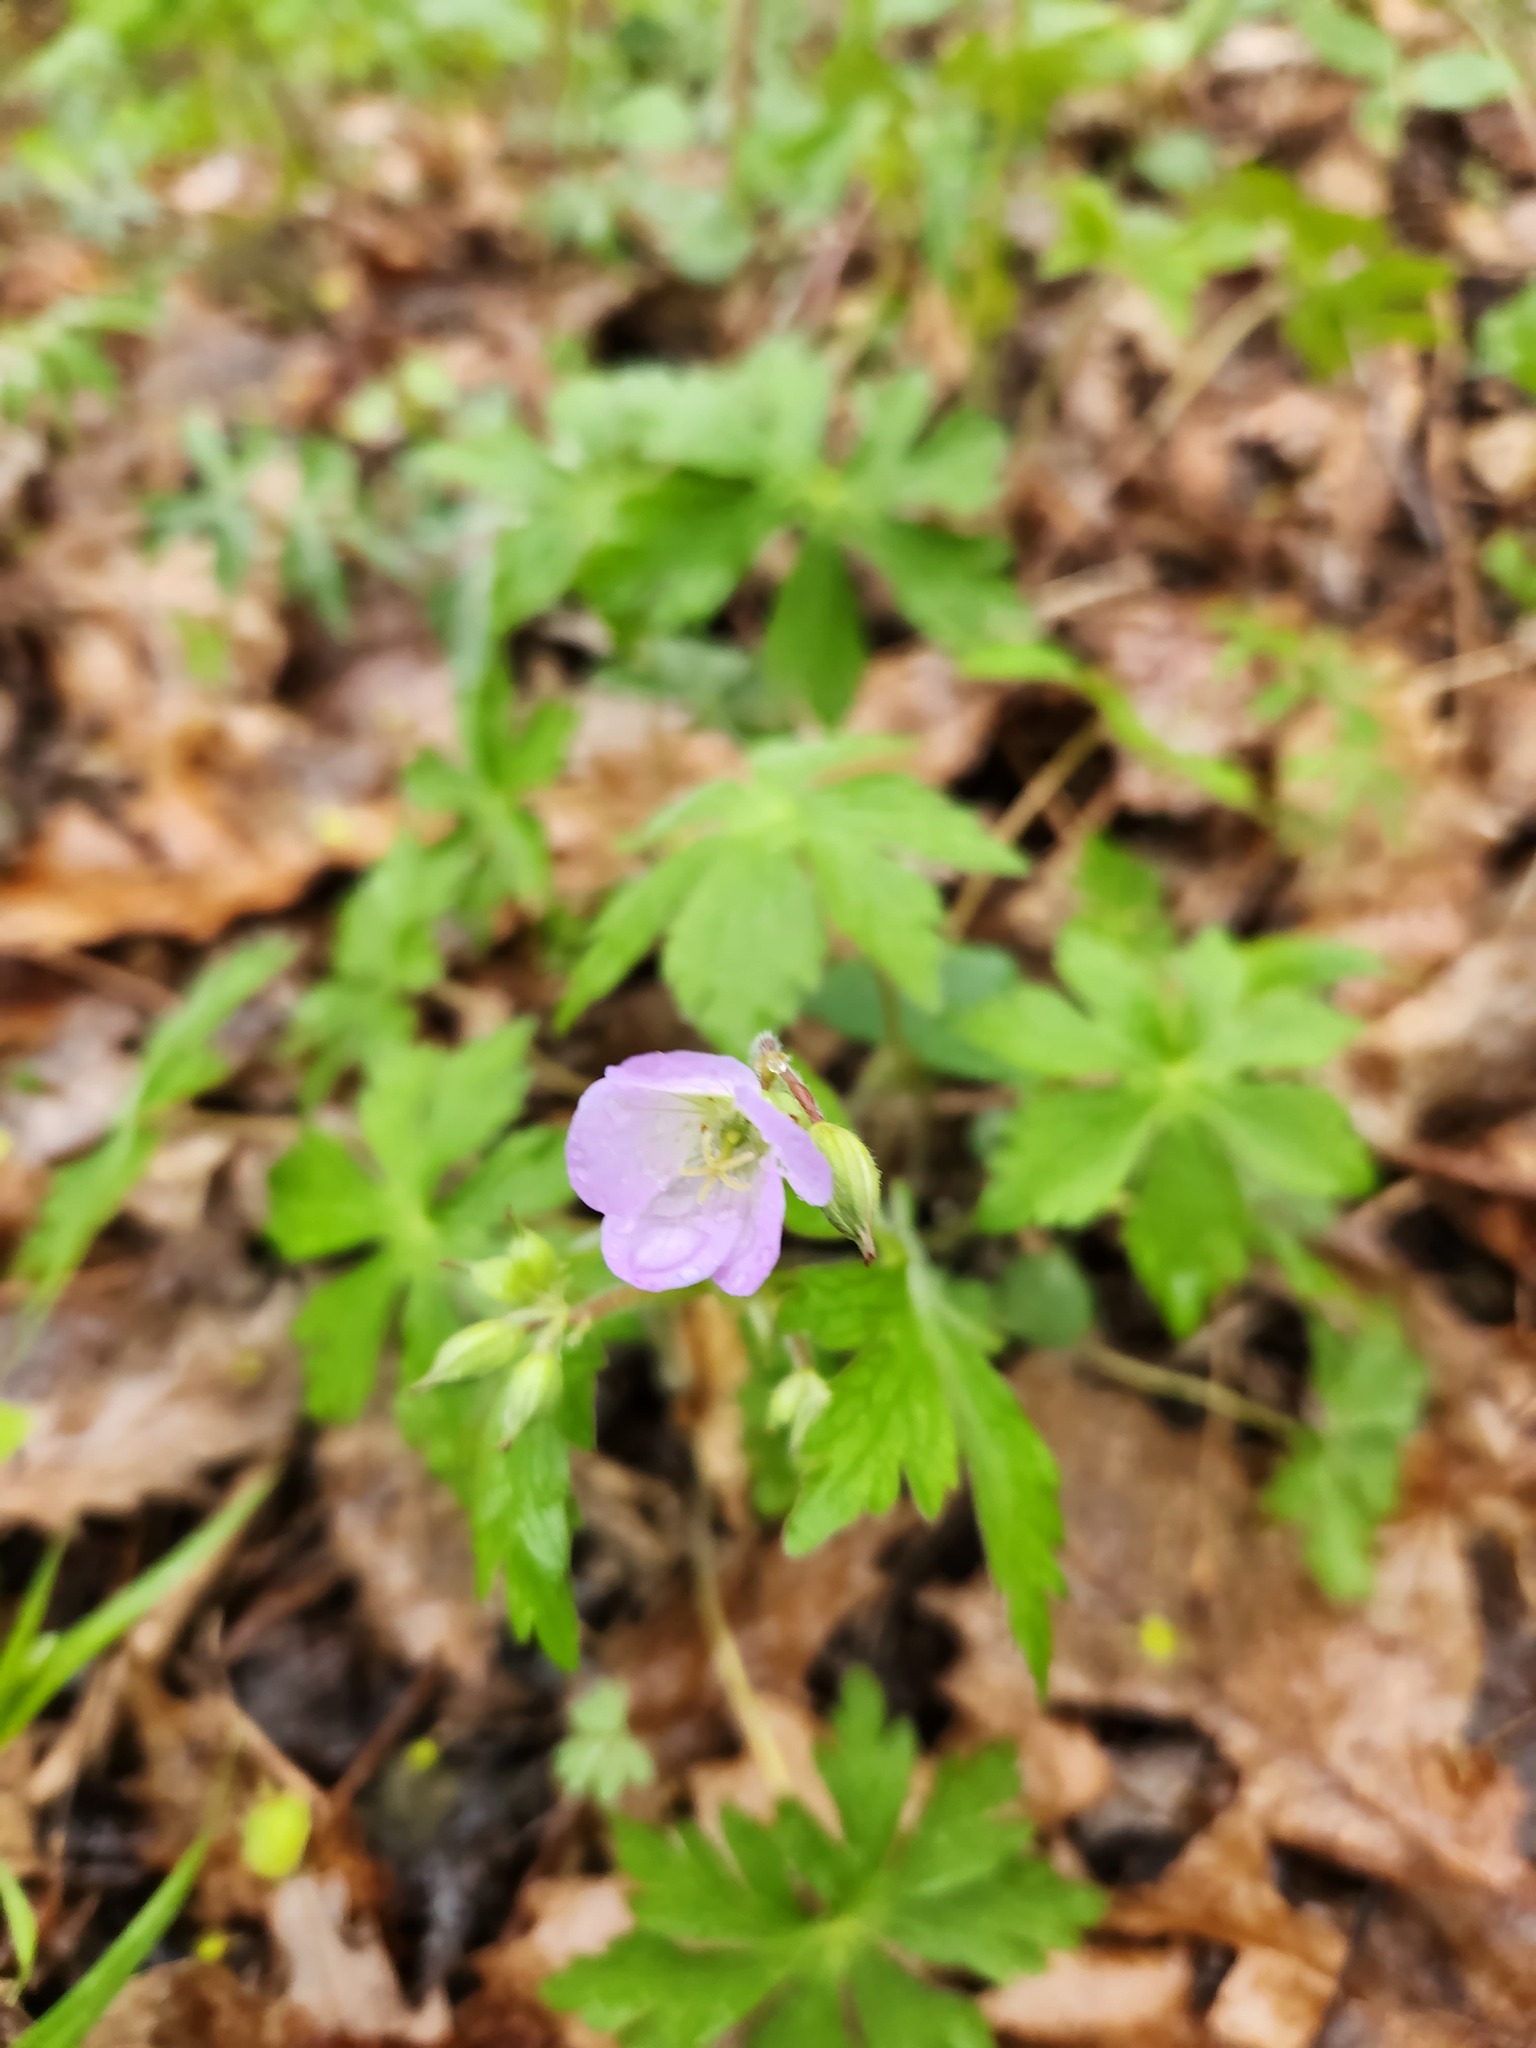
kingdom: Plantae
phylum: Tracheophyta
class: Magnoliopsida
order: Geraniales
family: Geraniaceae
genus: Geranium
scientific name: Geranium maculatum
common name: Spotted geranium
